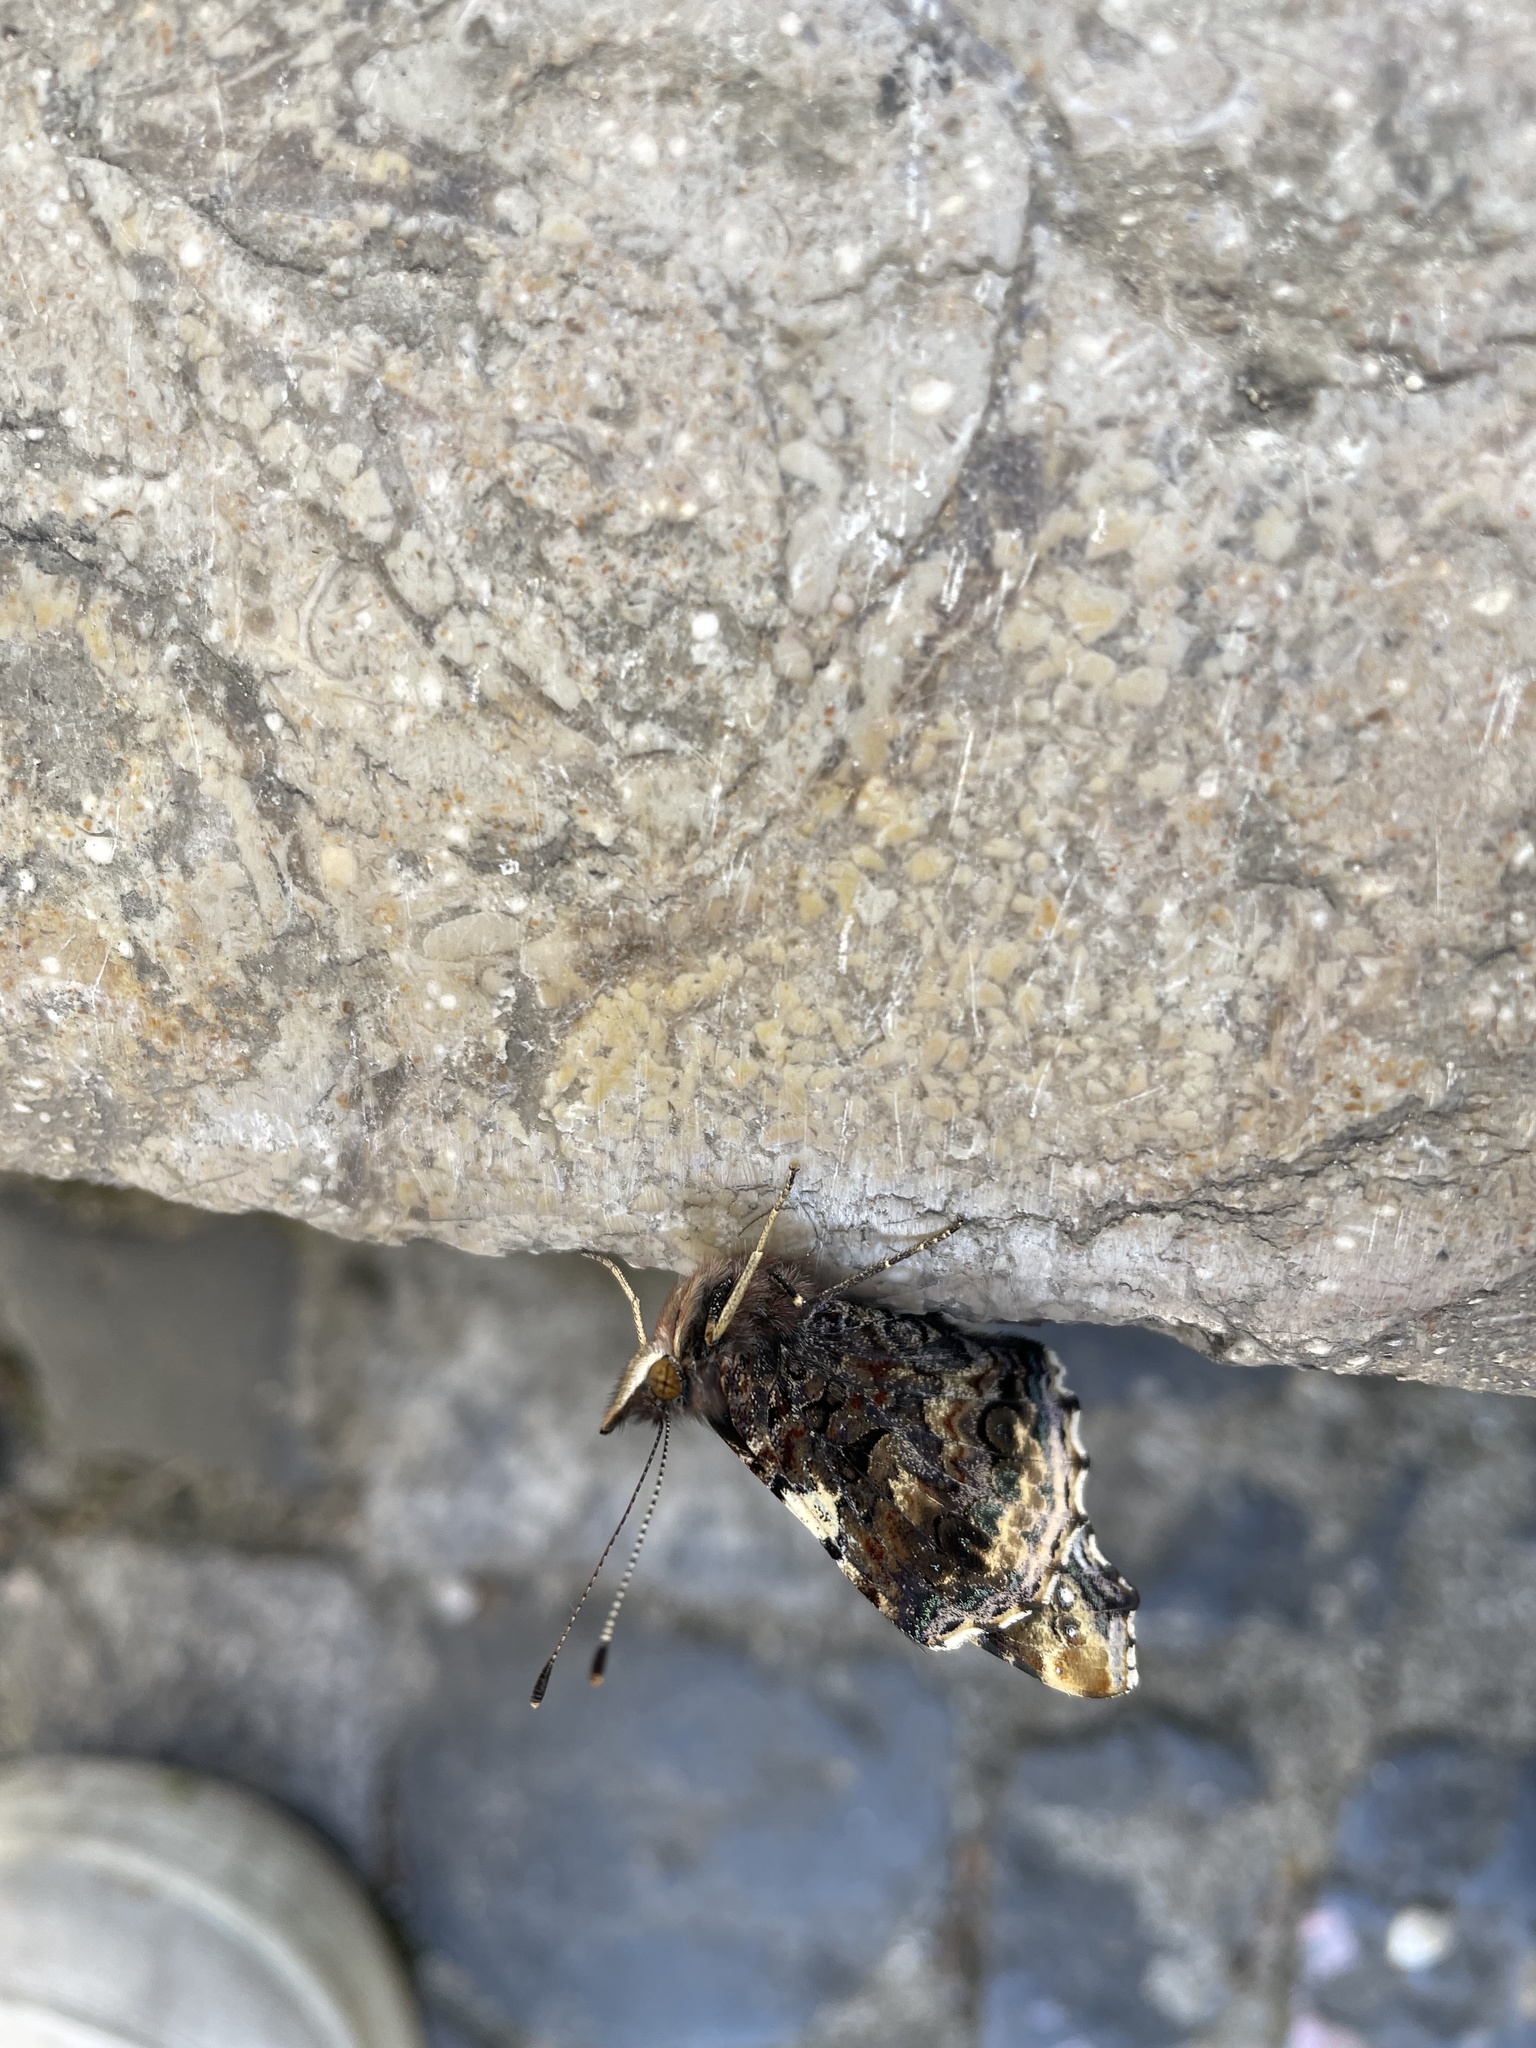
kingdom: Animalia
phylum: Arthropoda
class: Insecta
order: Lepidoptera
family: Nymphalidae
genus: Vanessa
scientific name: Vanessa atalanta
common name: Red admiral
